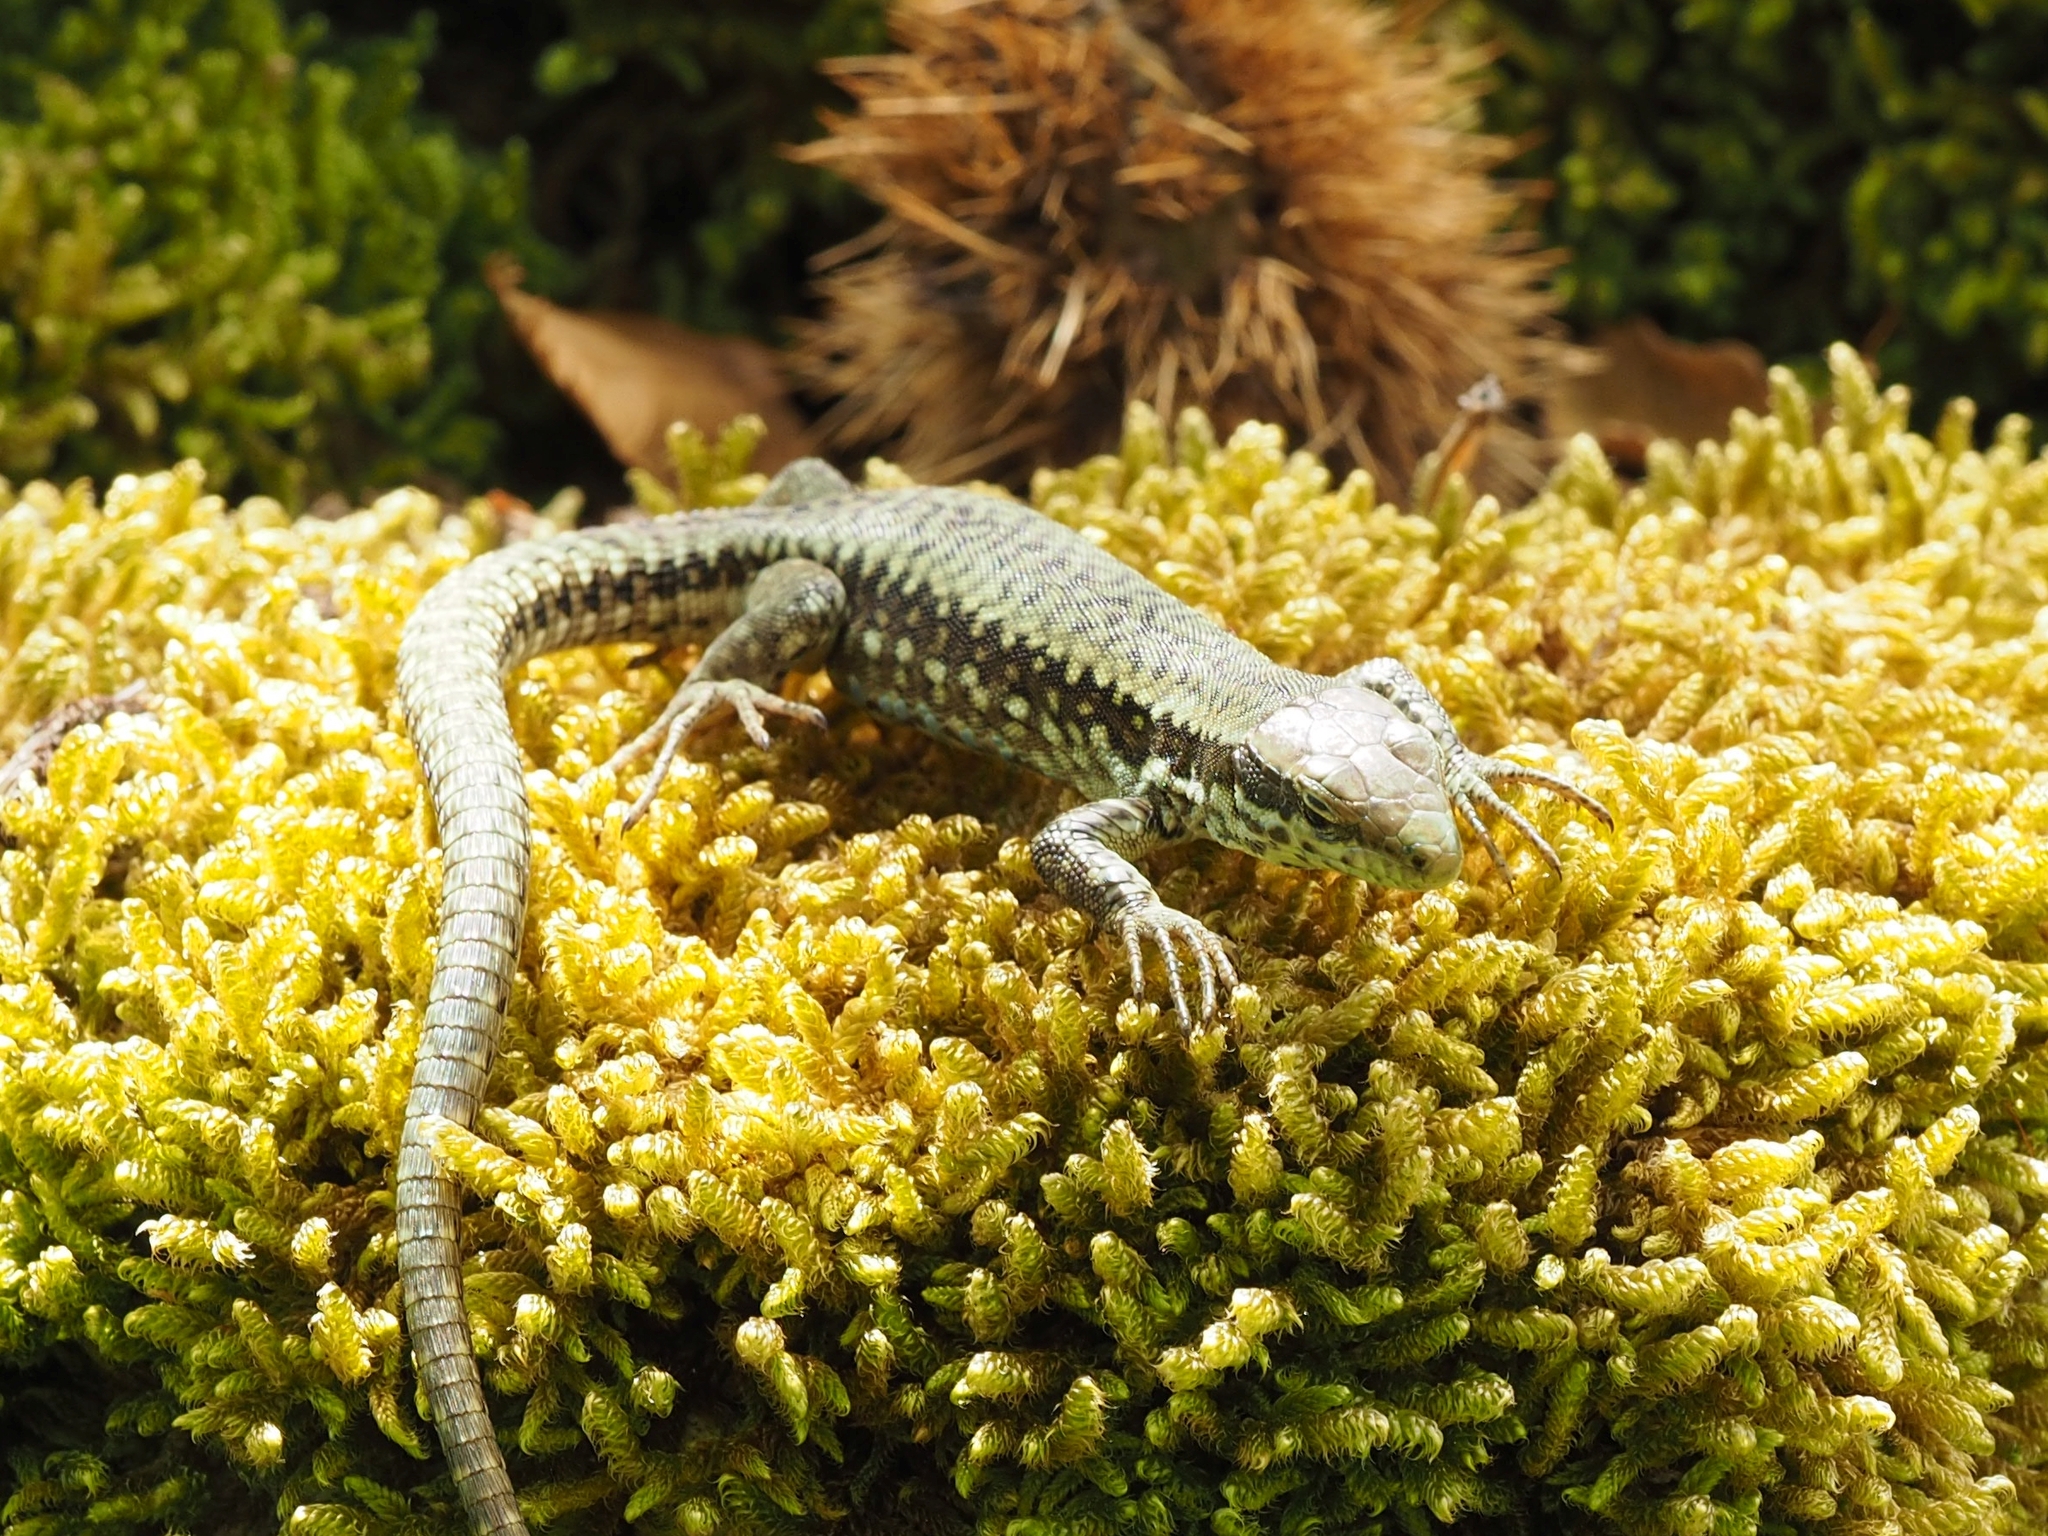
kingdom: Animalia
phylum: Chordata
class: Squamata
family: Lacertidae
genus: Podarcis
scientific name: Podarcis muralis
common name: Common wall lizard
